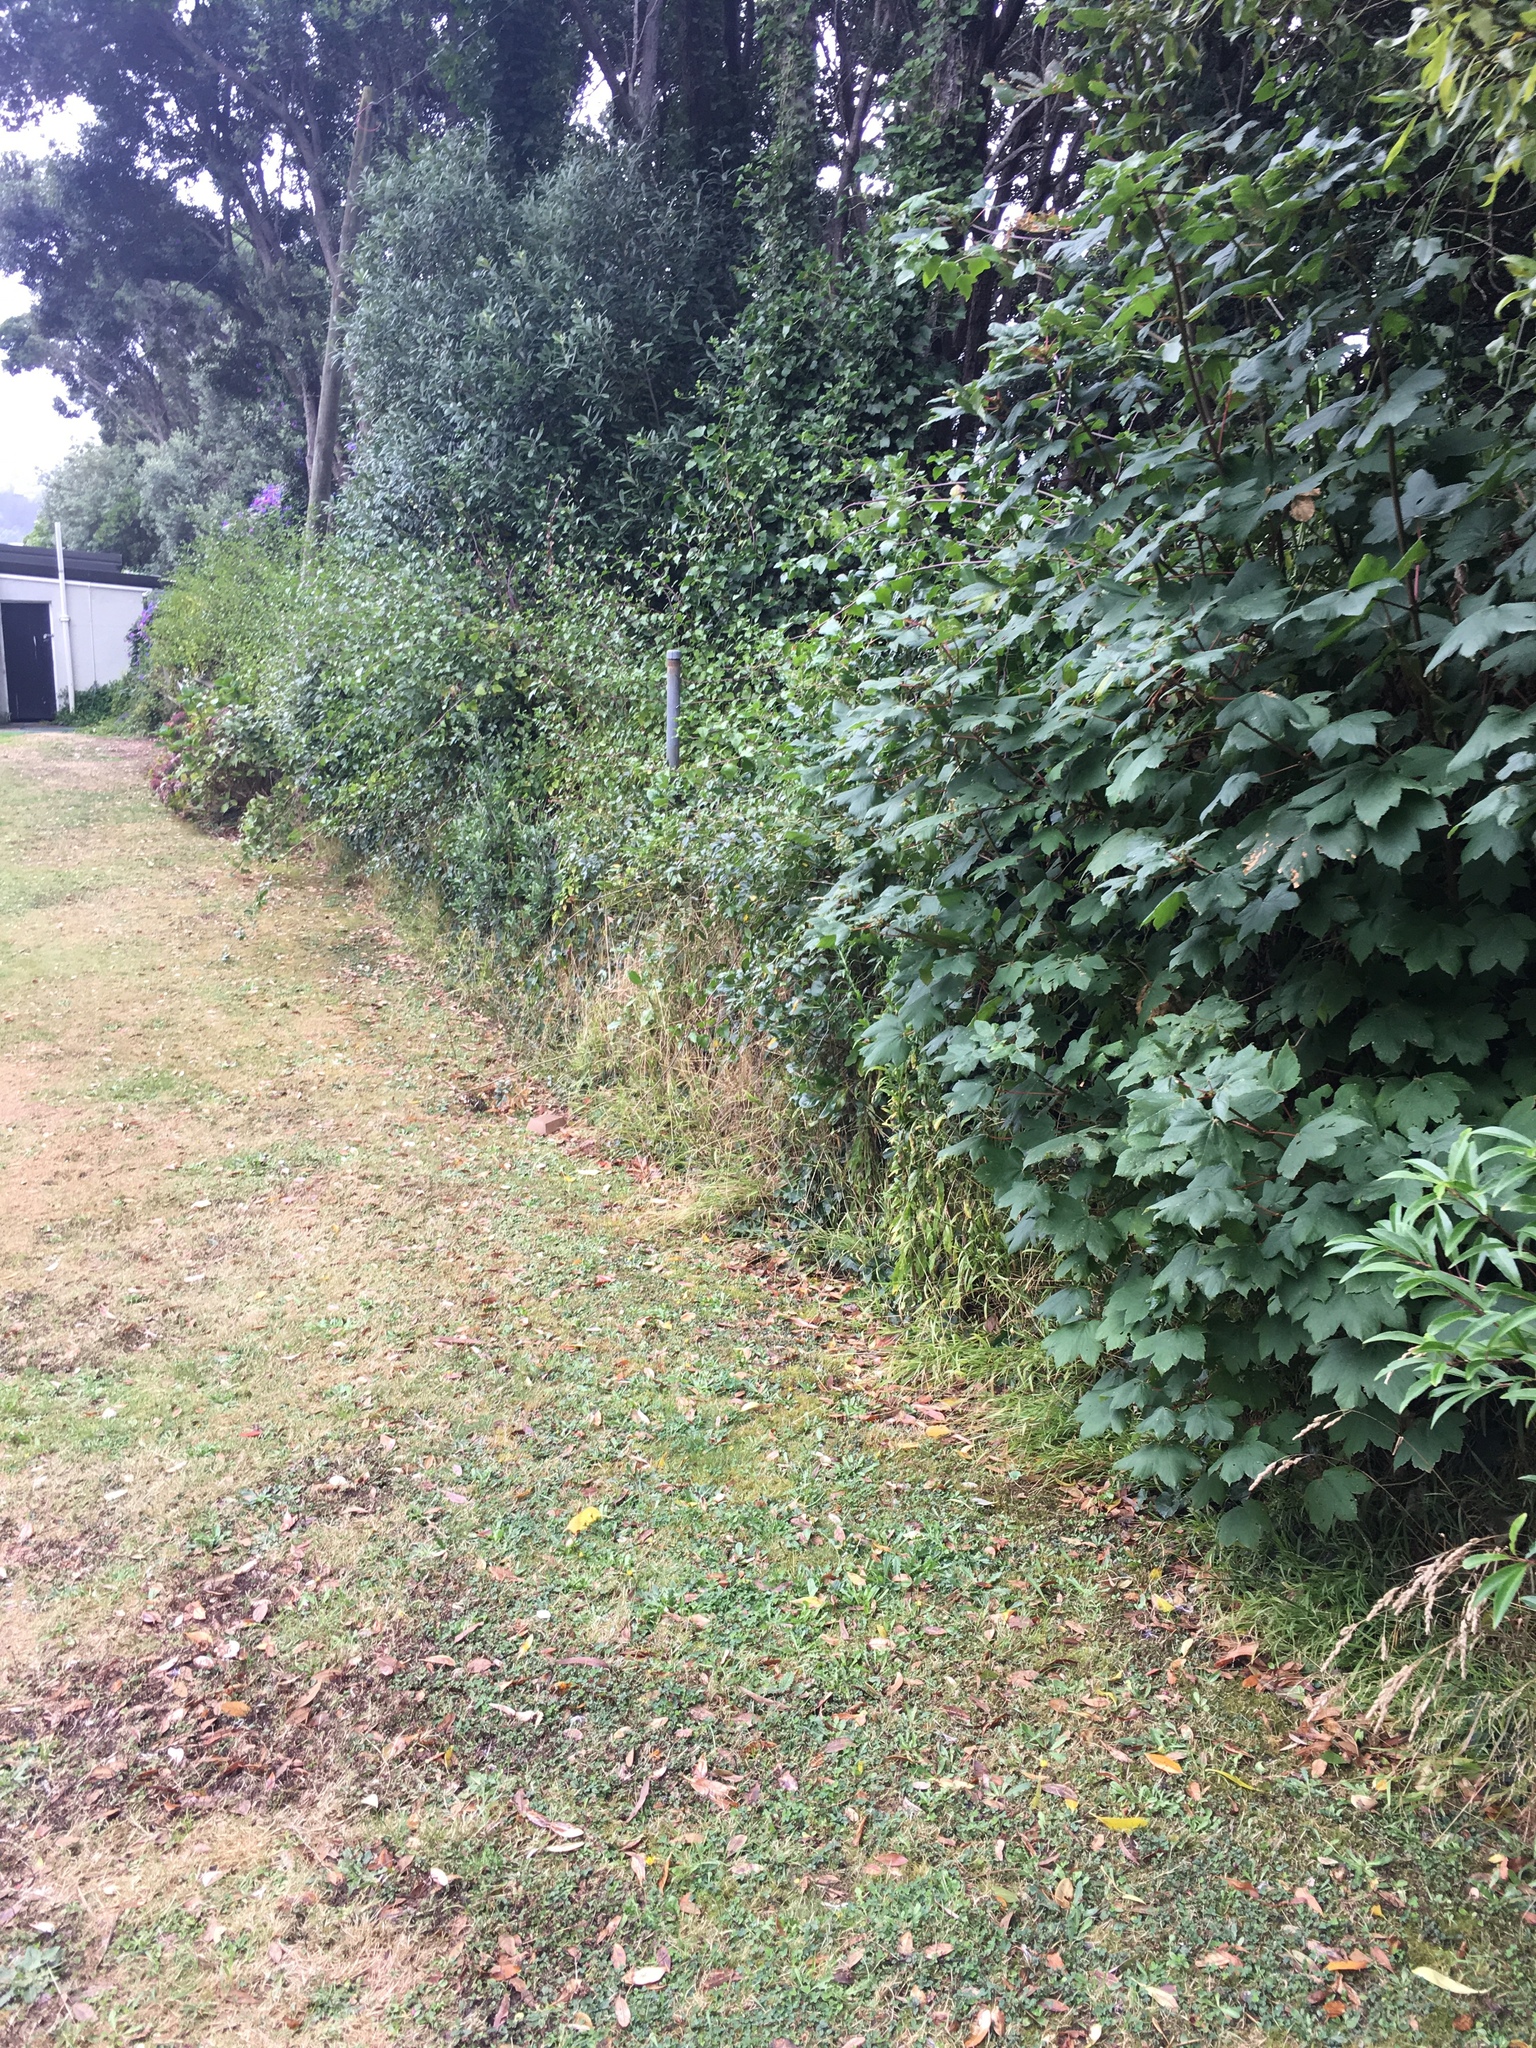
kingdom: Plantae
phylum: Tracheophyta
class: Magnoliopsida
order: Sapindales
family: Sapindaceae
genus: Acer
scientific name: Acer pseudoplatanus
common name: Sycamore
